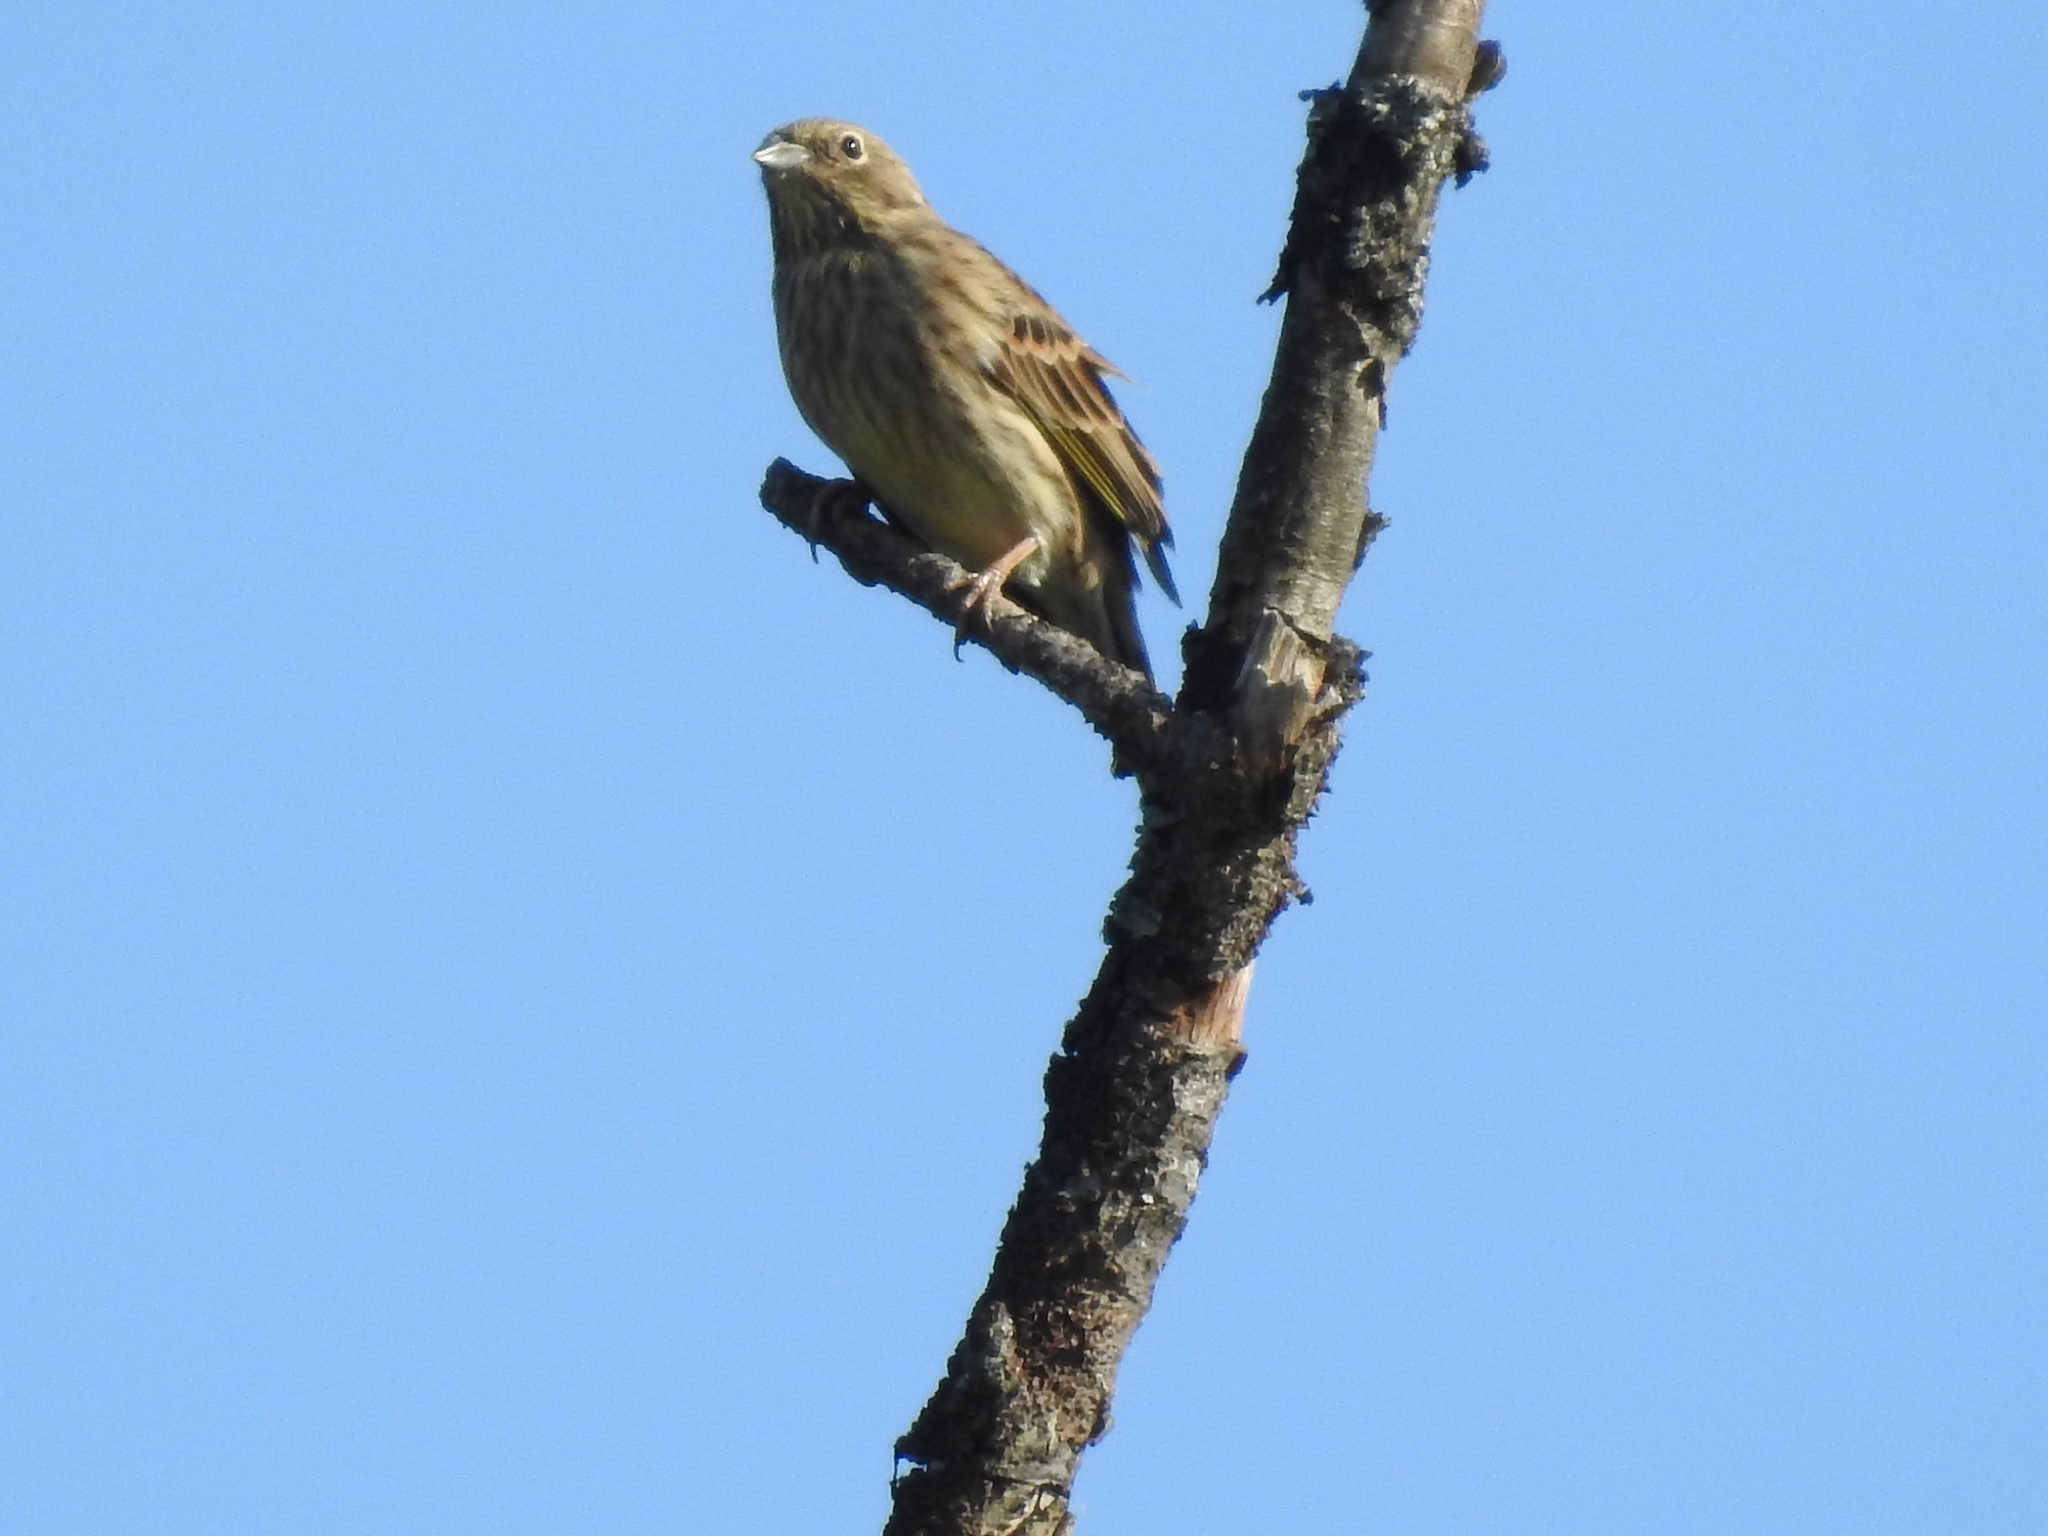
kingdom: Animalia
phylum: Chordata
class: Aves
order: Passeriformes
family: Emberizidae
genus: Emberiza
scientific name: Emberiza citrinella
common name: Yellowhammer
